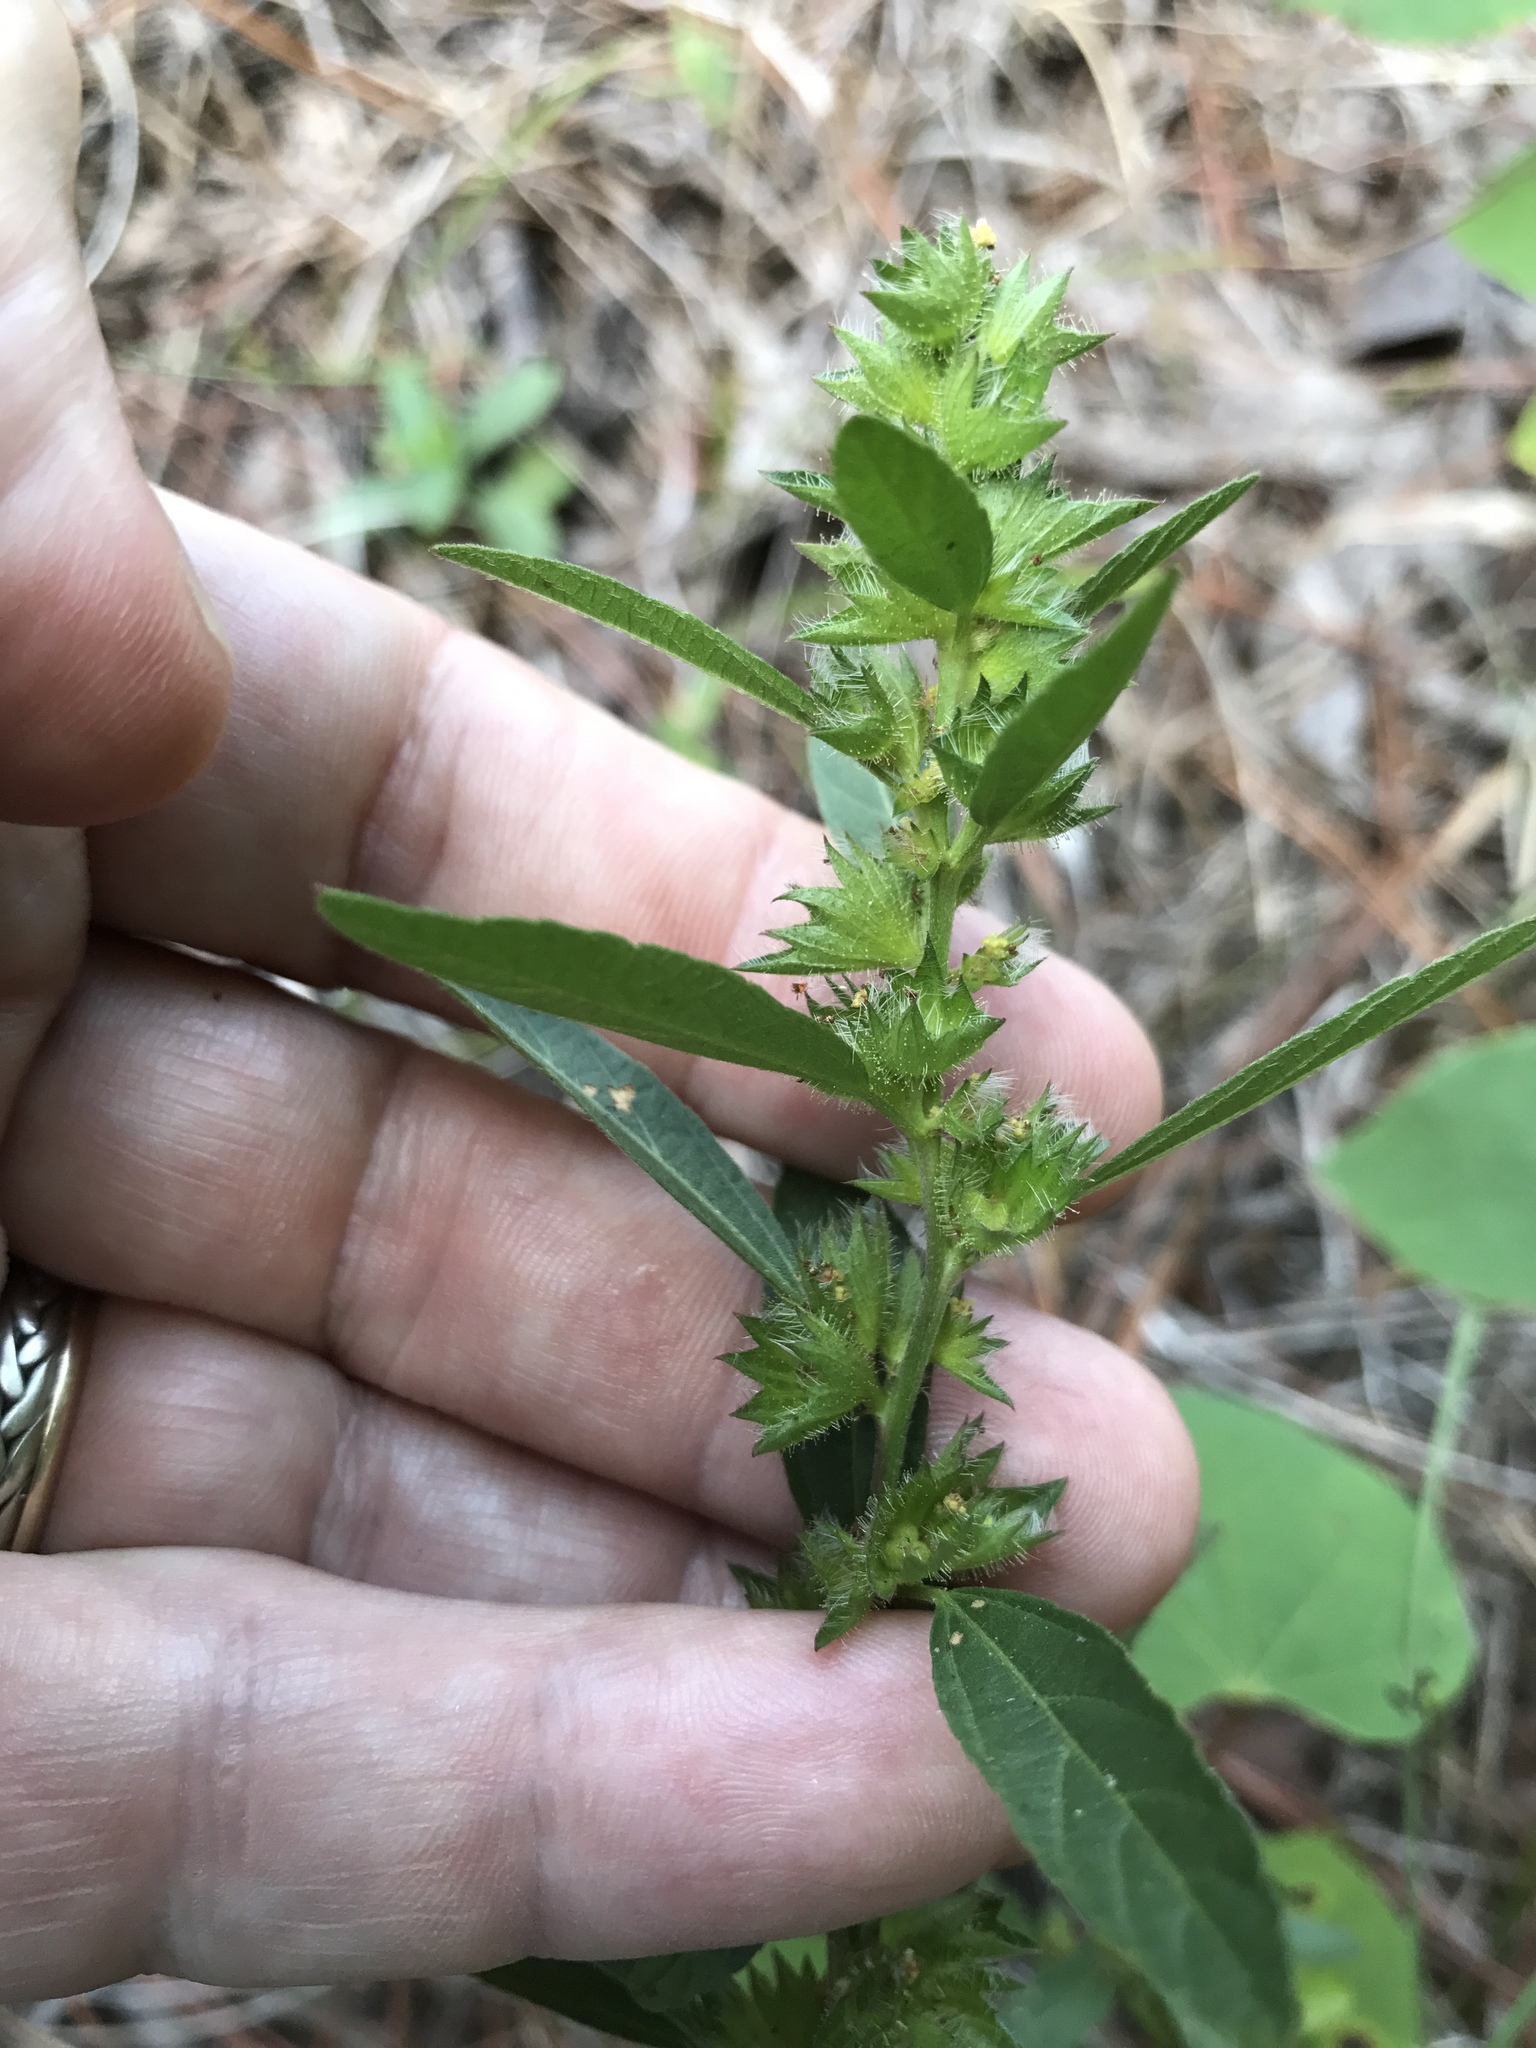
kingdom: Plantae
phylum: Tracheophyta
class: Magnoliopsida
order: Malpighiales
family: Euphorbiaceae
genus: Acalypha
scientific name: Acalypha gracilens
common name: Slender three-seeded mercury
